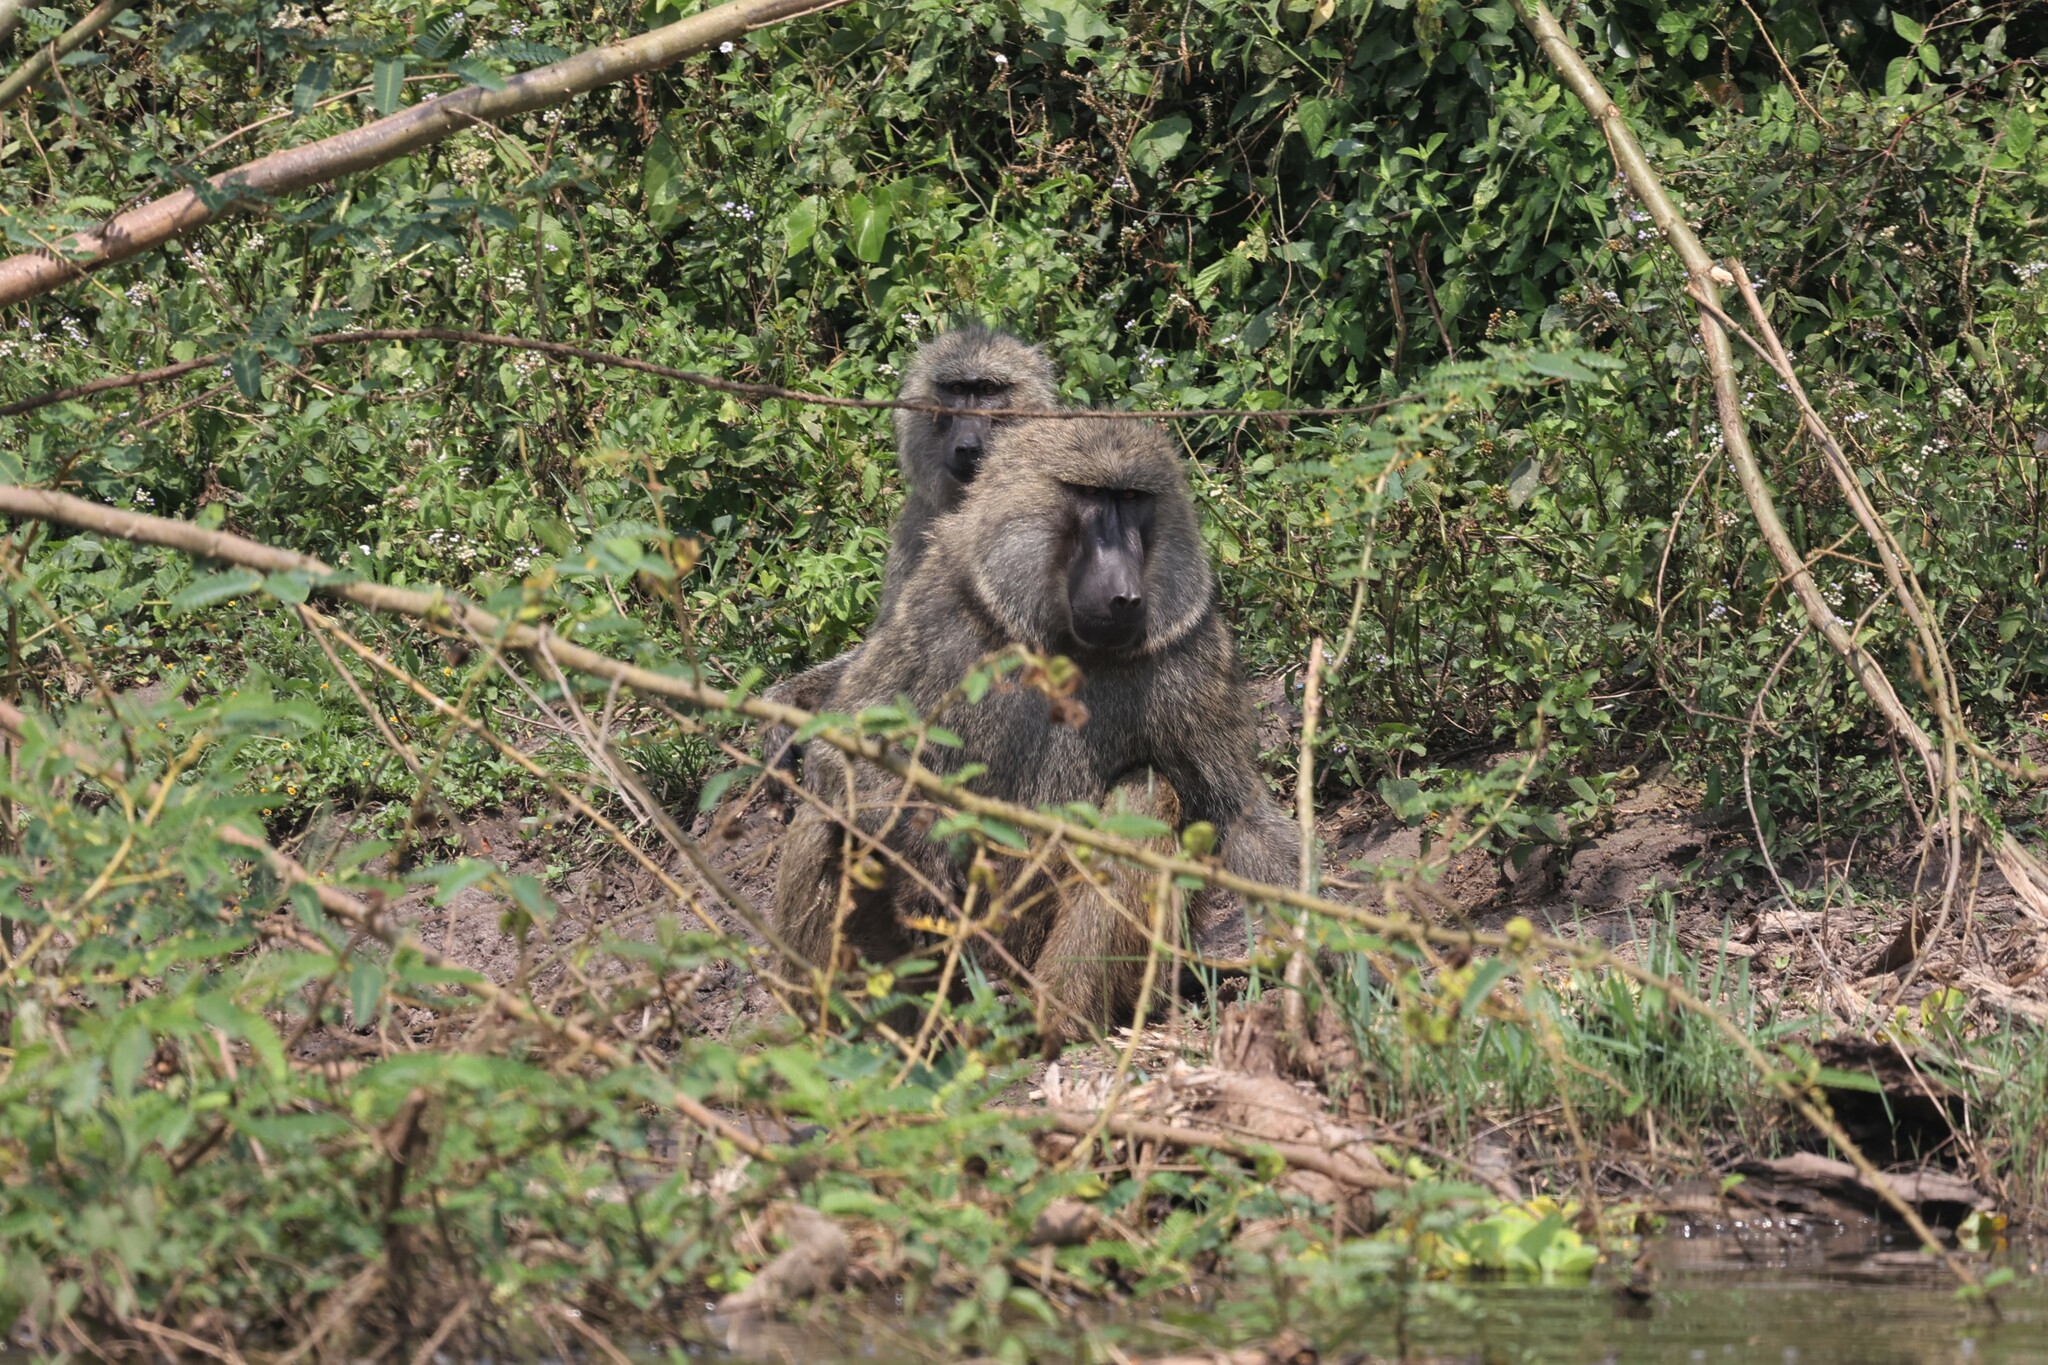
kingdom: Animalia
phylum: Chordata
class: Mammalia
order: Primates
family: Cercopithecidae
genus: Papio
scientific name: Papio anubis
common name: Olive baboon
